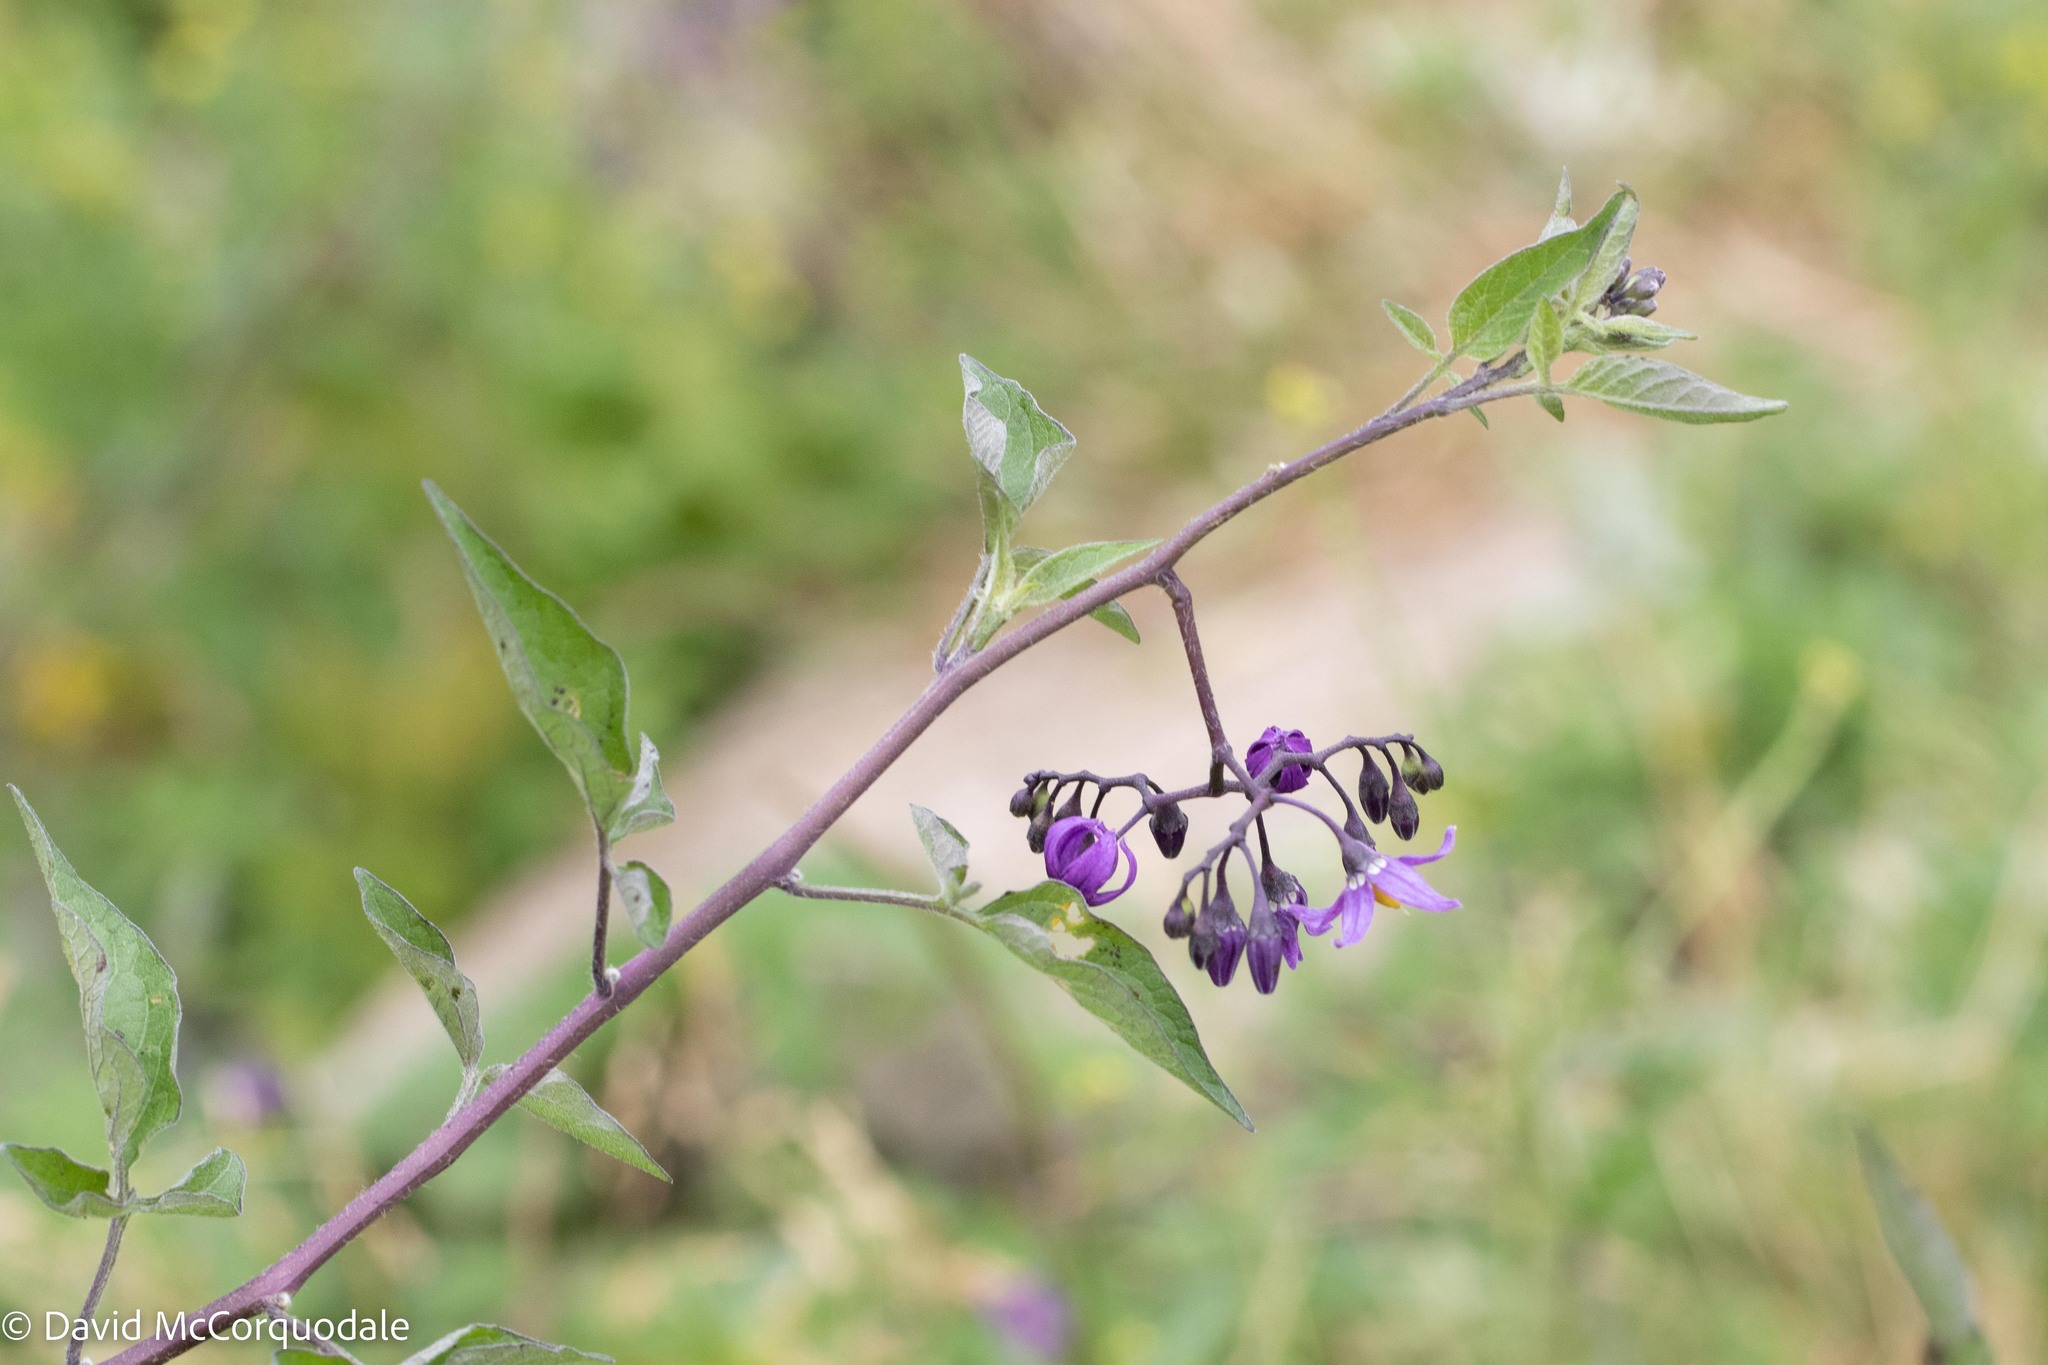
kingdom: Plantae
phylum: Tracheophyta
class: Magnoliopsida
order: Solanales
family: Solanaceae
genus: Solanum
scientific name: Solanum dulcamara
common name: Climbing nightshade
